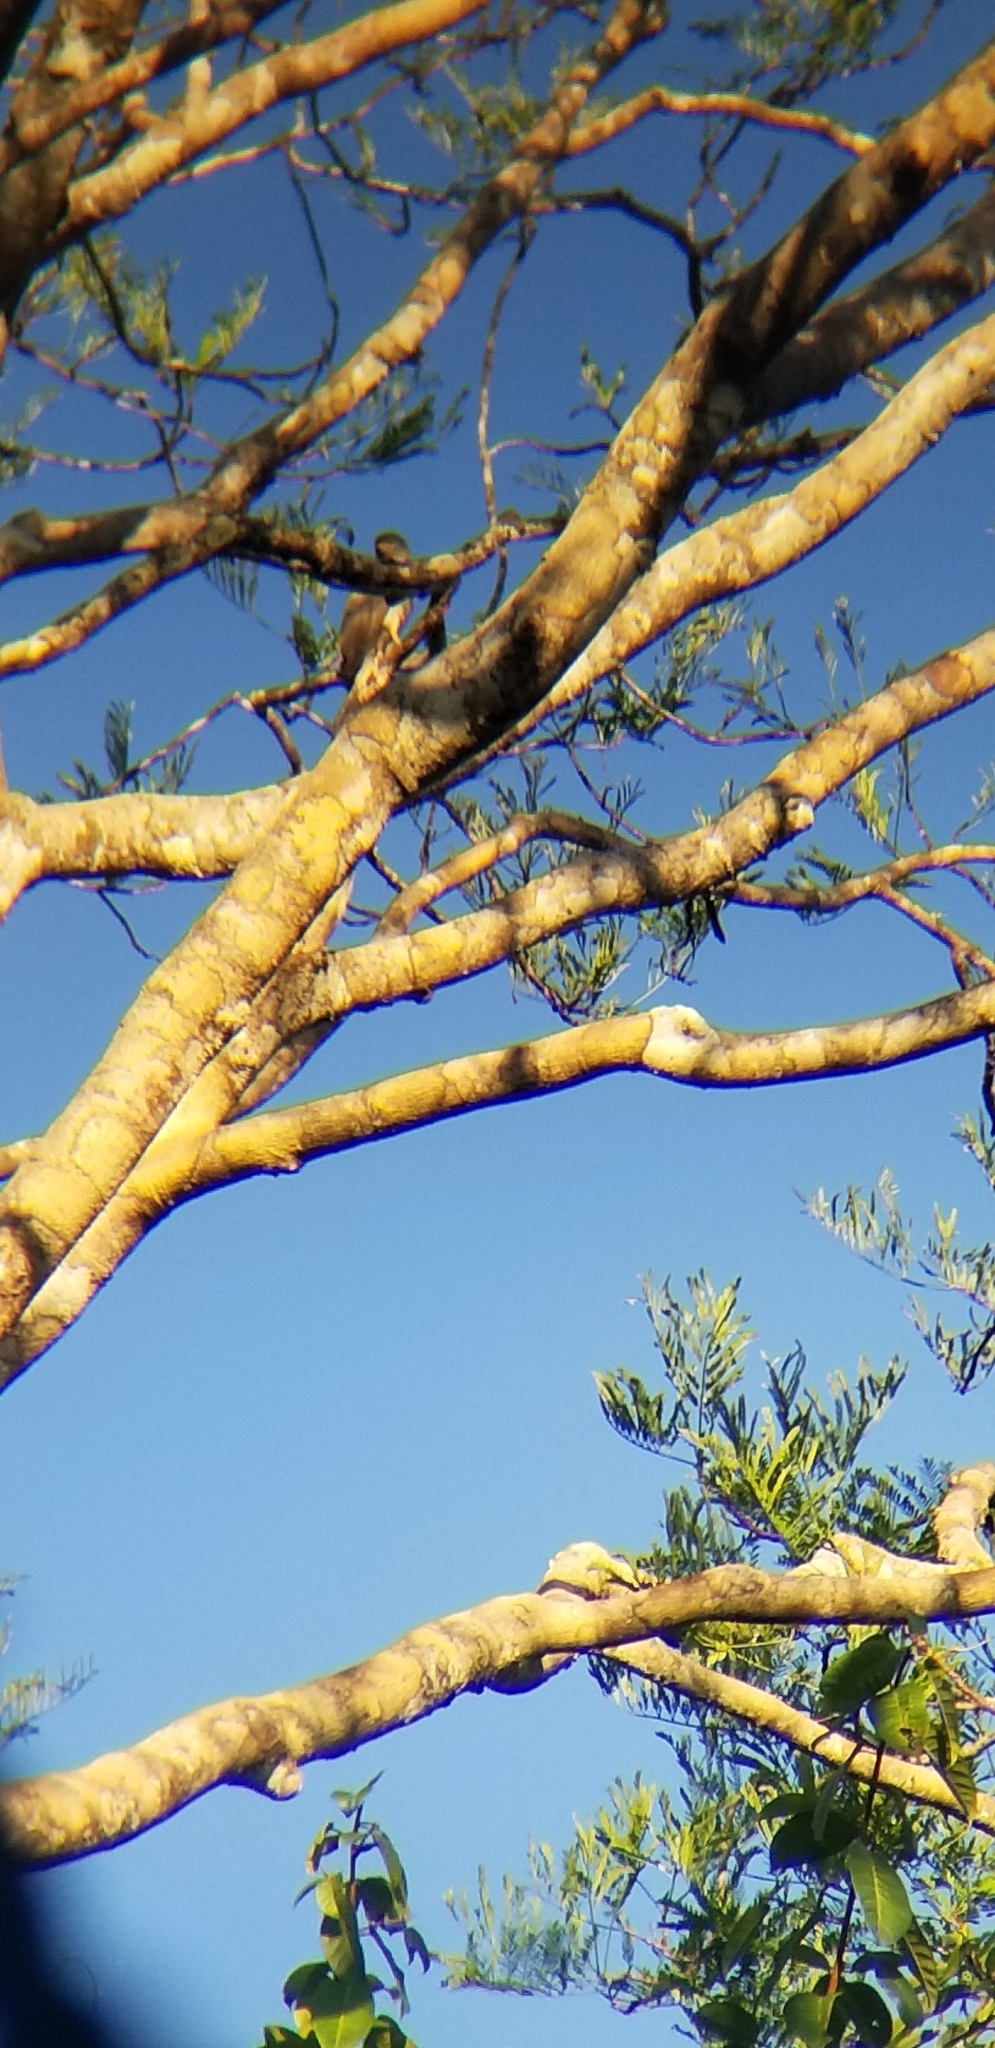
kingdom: Animalia
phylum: Chordata
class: Aves
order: Accipitriformes
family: Accipitridae
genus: Rupornis
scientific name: Rupornis magnirostris
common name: Roadside hawk
